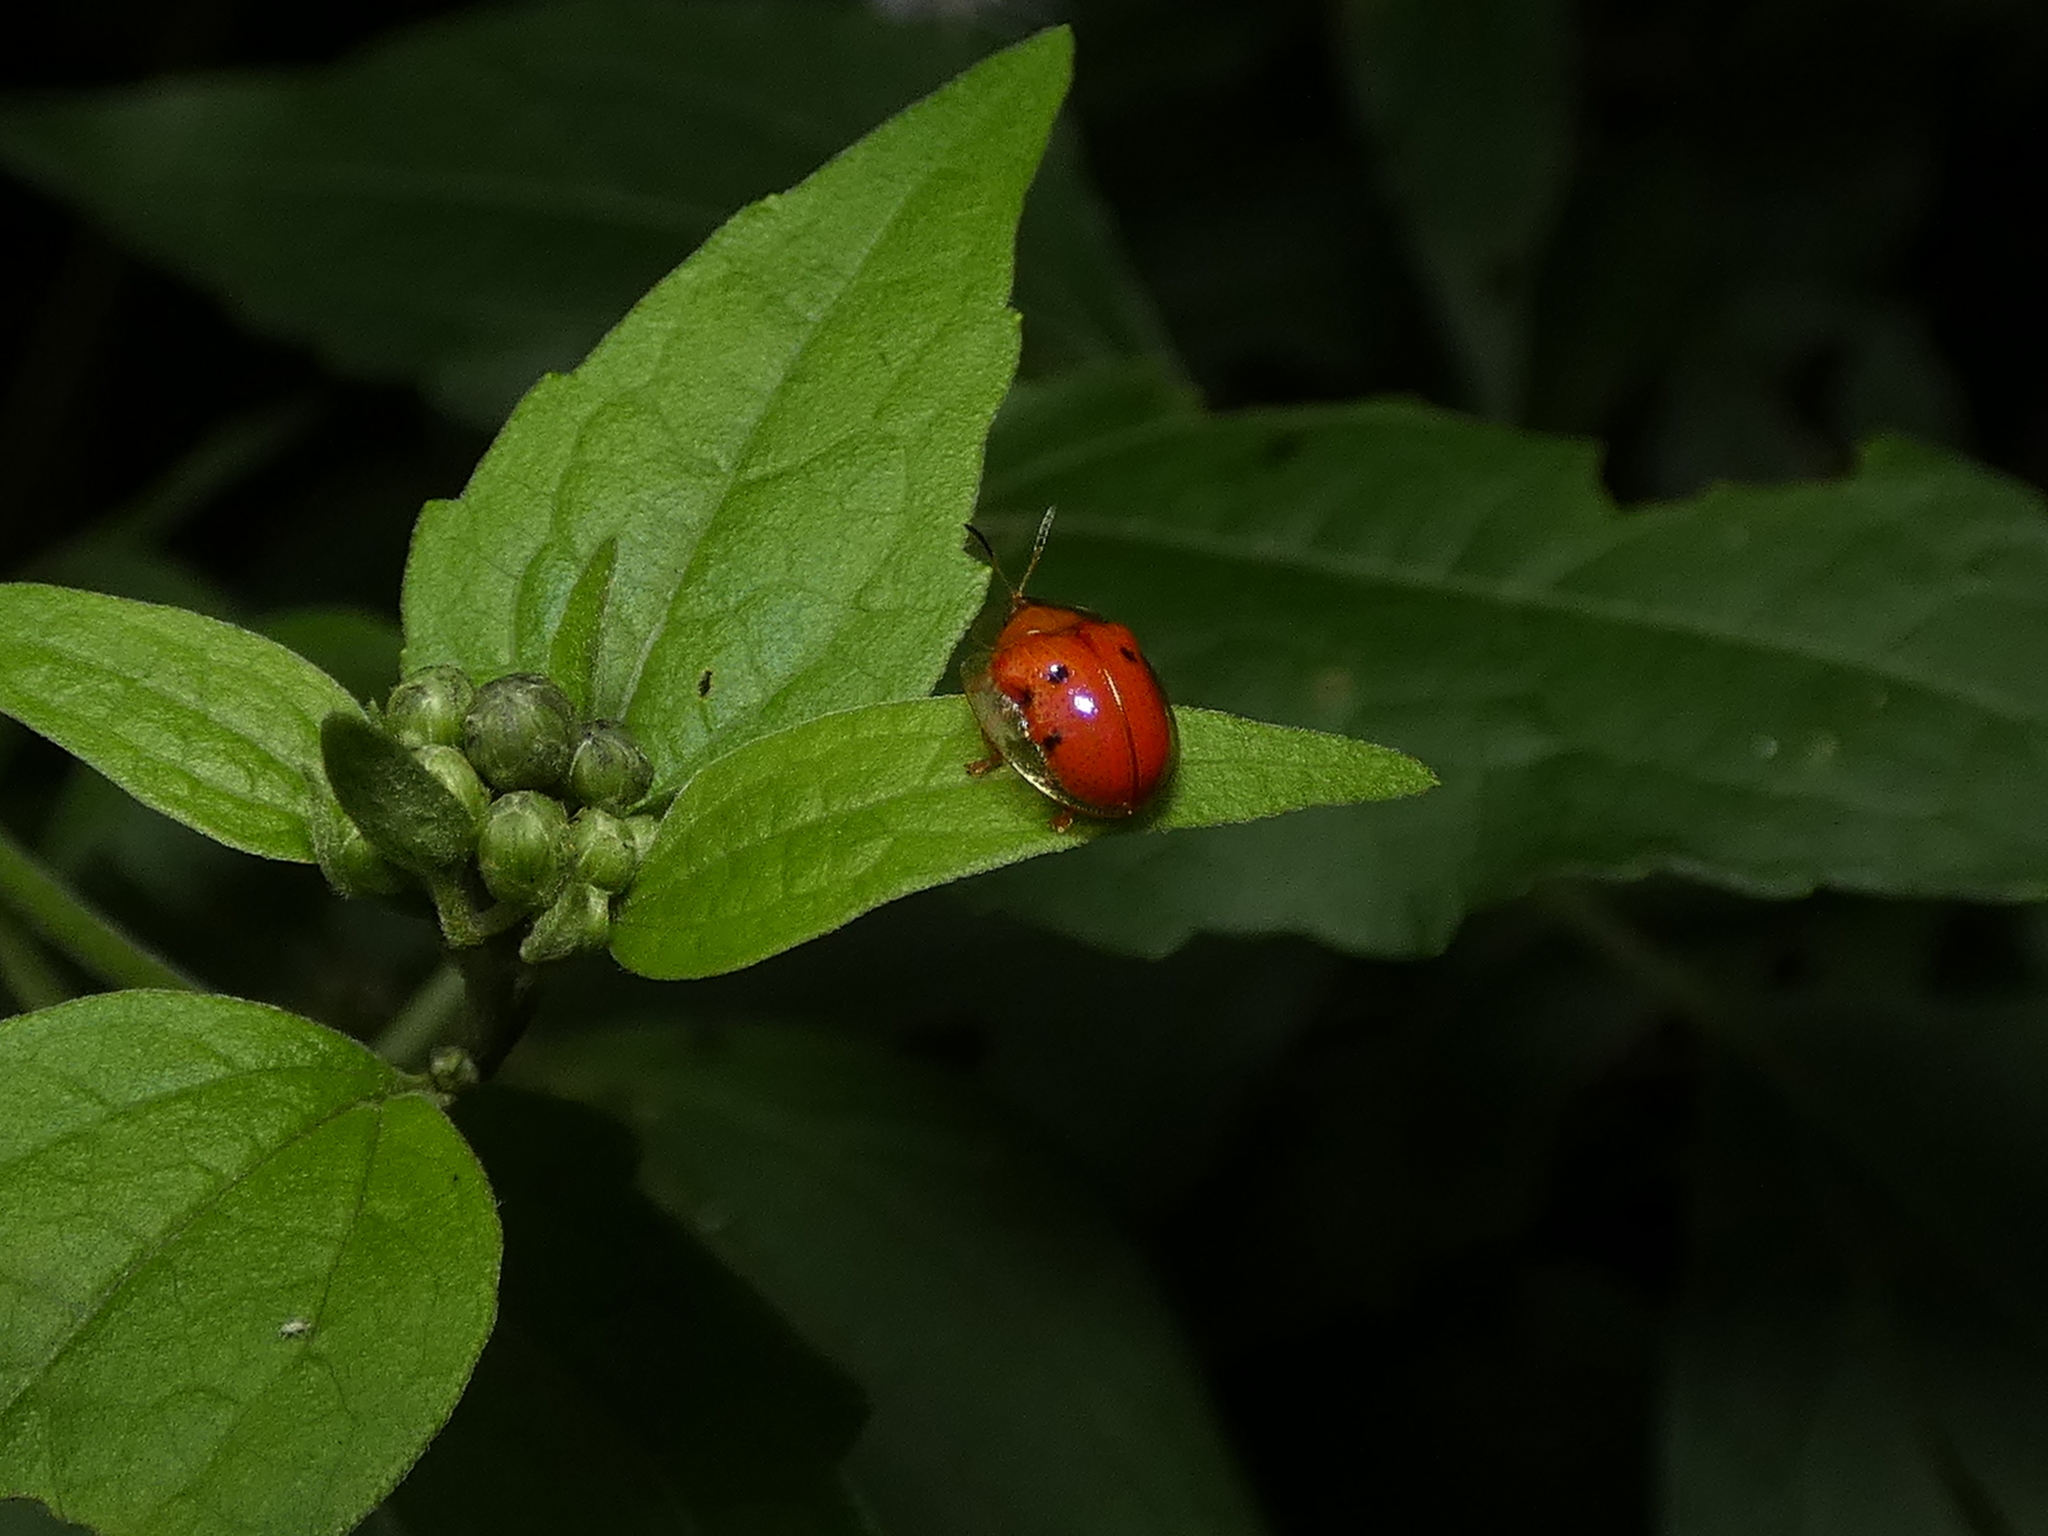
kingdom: Animalia
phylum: Arthropoda
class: Insecta
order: Coleoptera
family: Chrysomelidae
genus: Charidotella
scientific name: Charidotella sexpunctata
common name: Golden tortoise beetle
